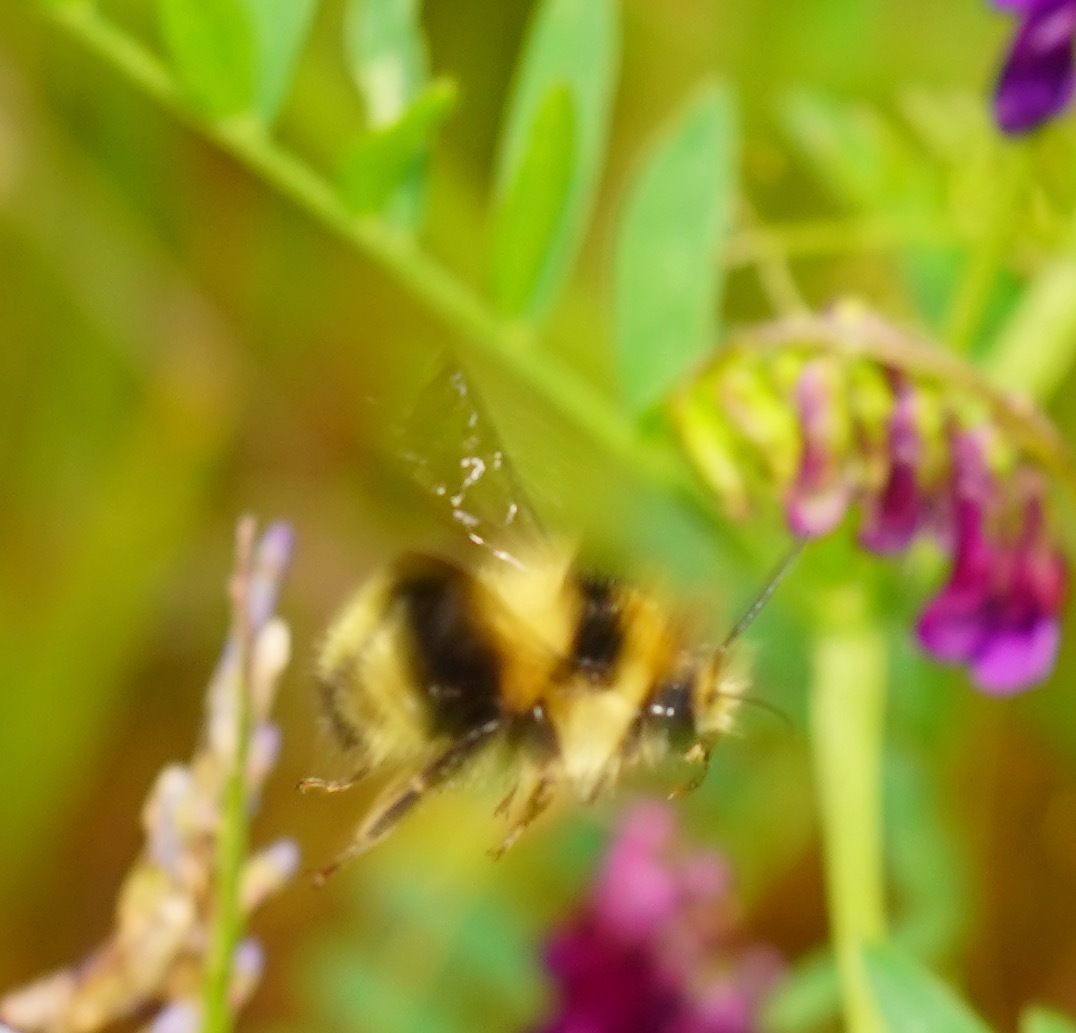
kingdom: Animalia
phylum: Arthropoda
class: Insecta
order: Hymenoptera
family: Apidae
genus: Bombus
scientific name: Bombus melanopygus
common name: Black tail bumble bee
